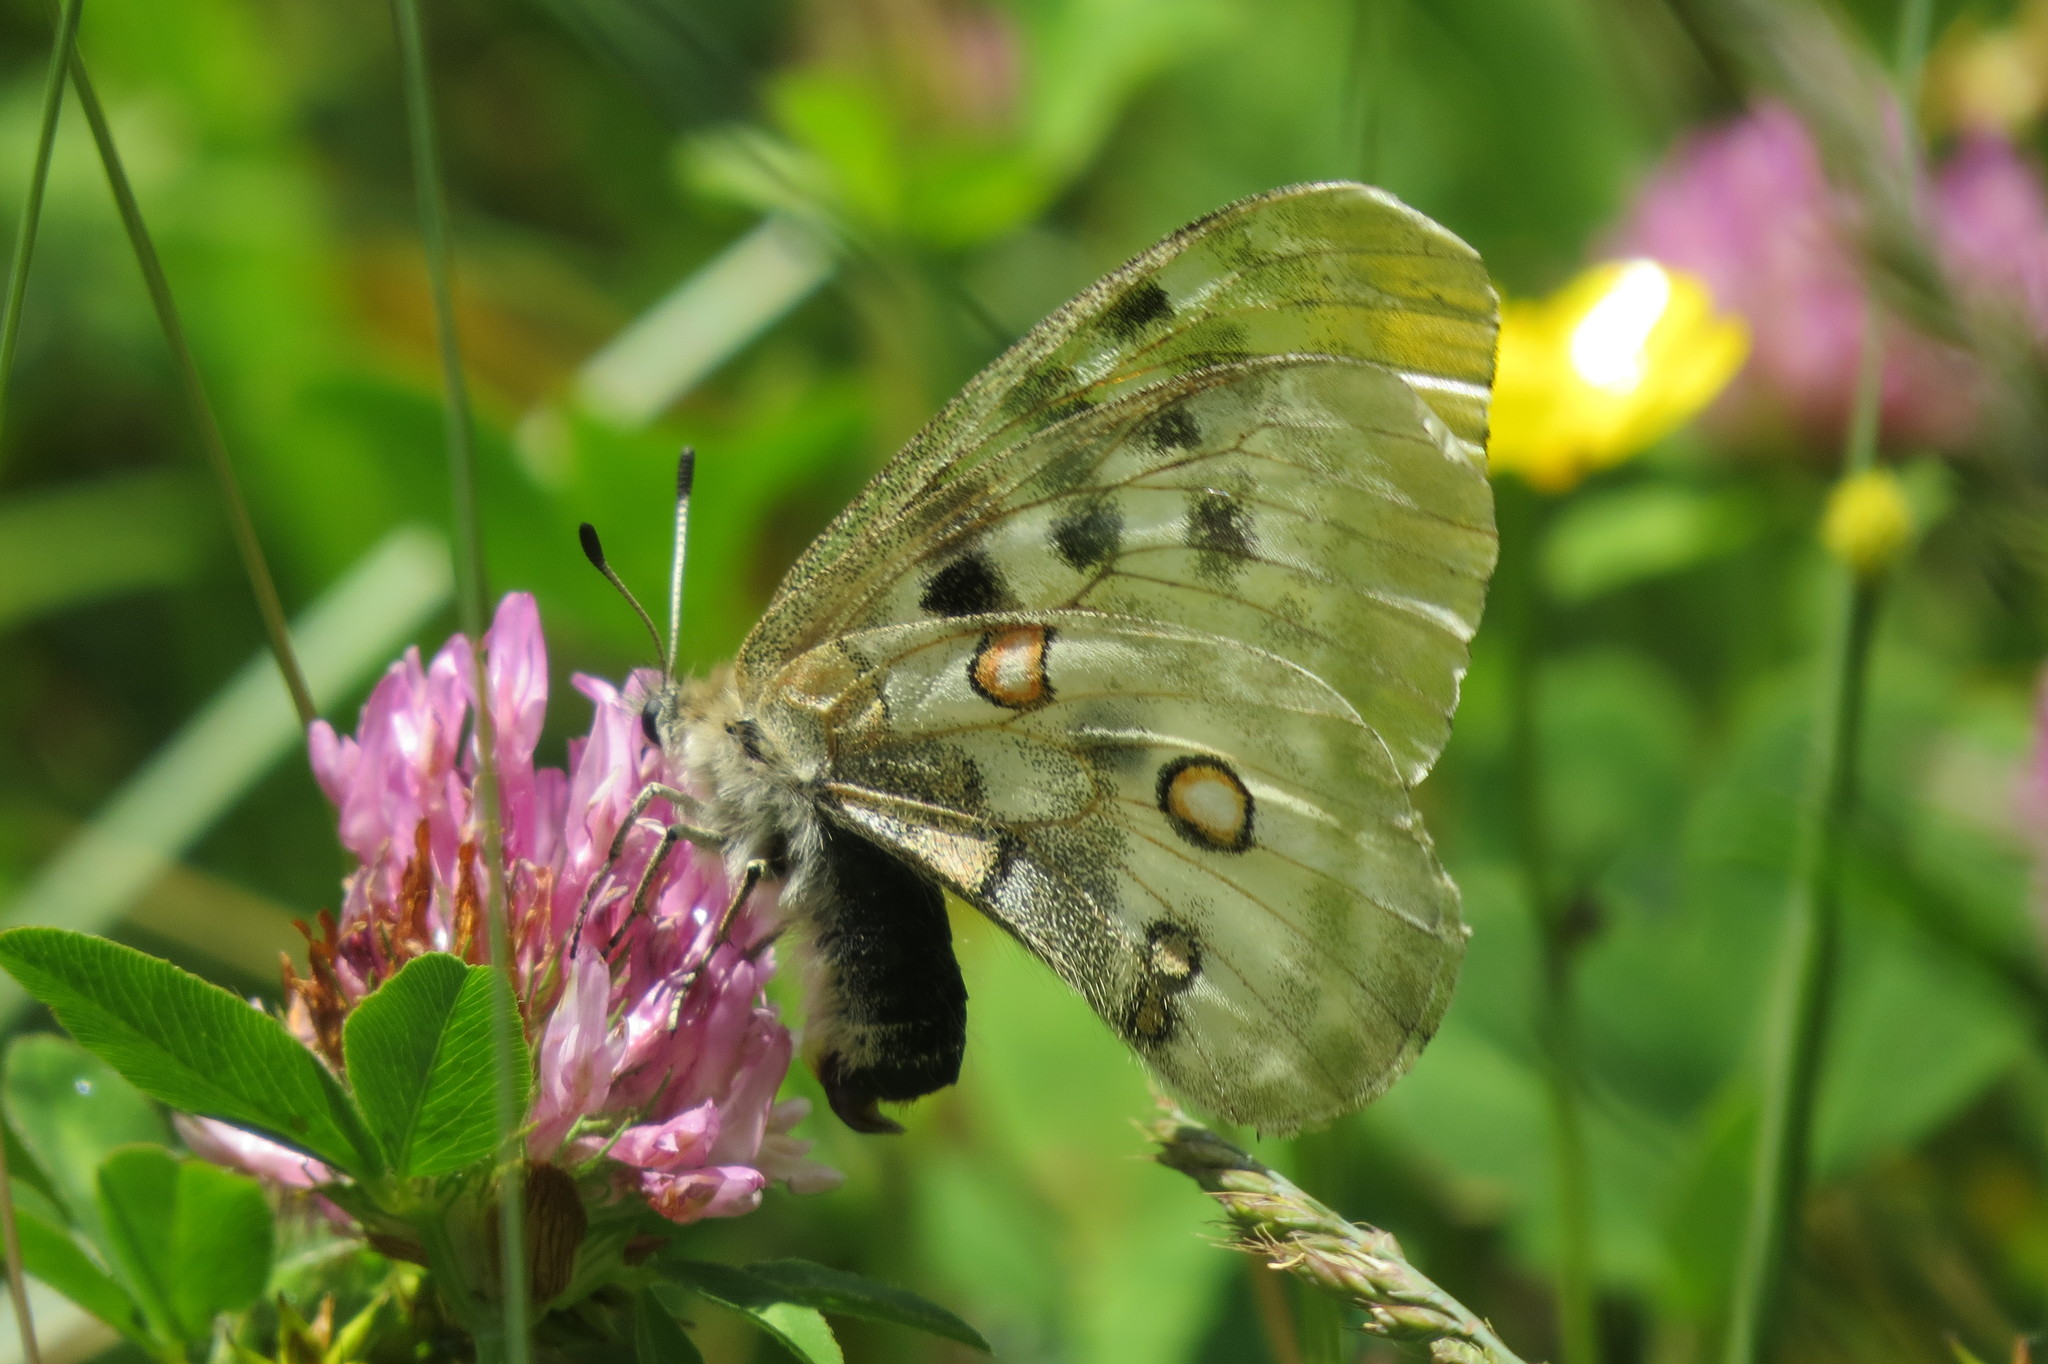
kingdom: Animalia
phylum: Arthropoda
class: Insecta
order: Lepidoptera
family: Papilionidae
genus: Parnassius
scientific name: Parnassius apollo
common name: Apollo
